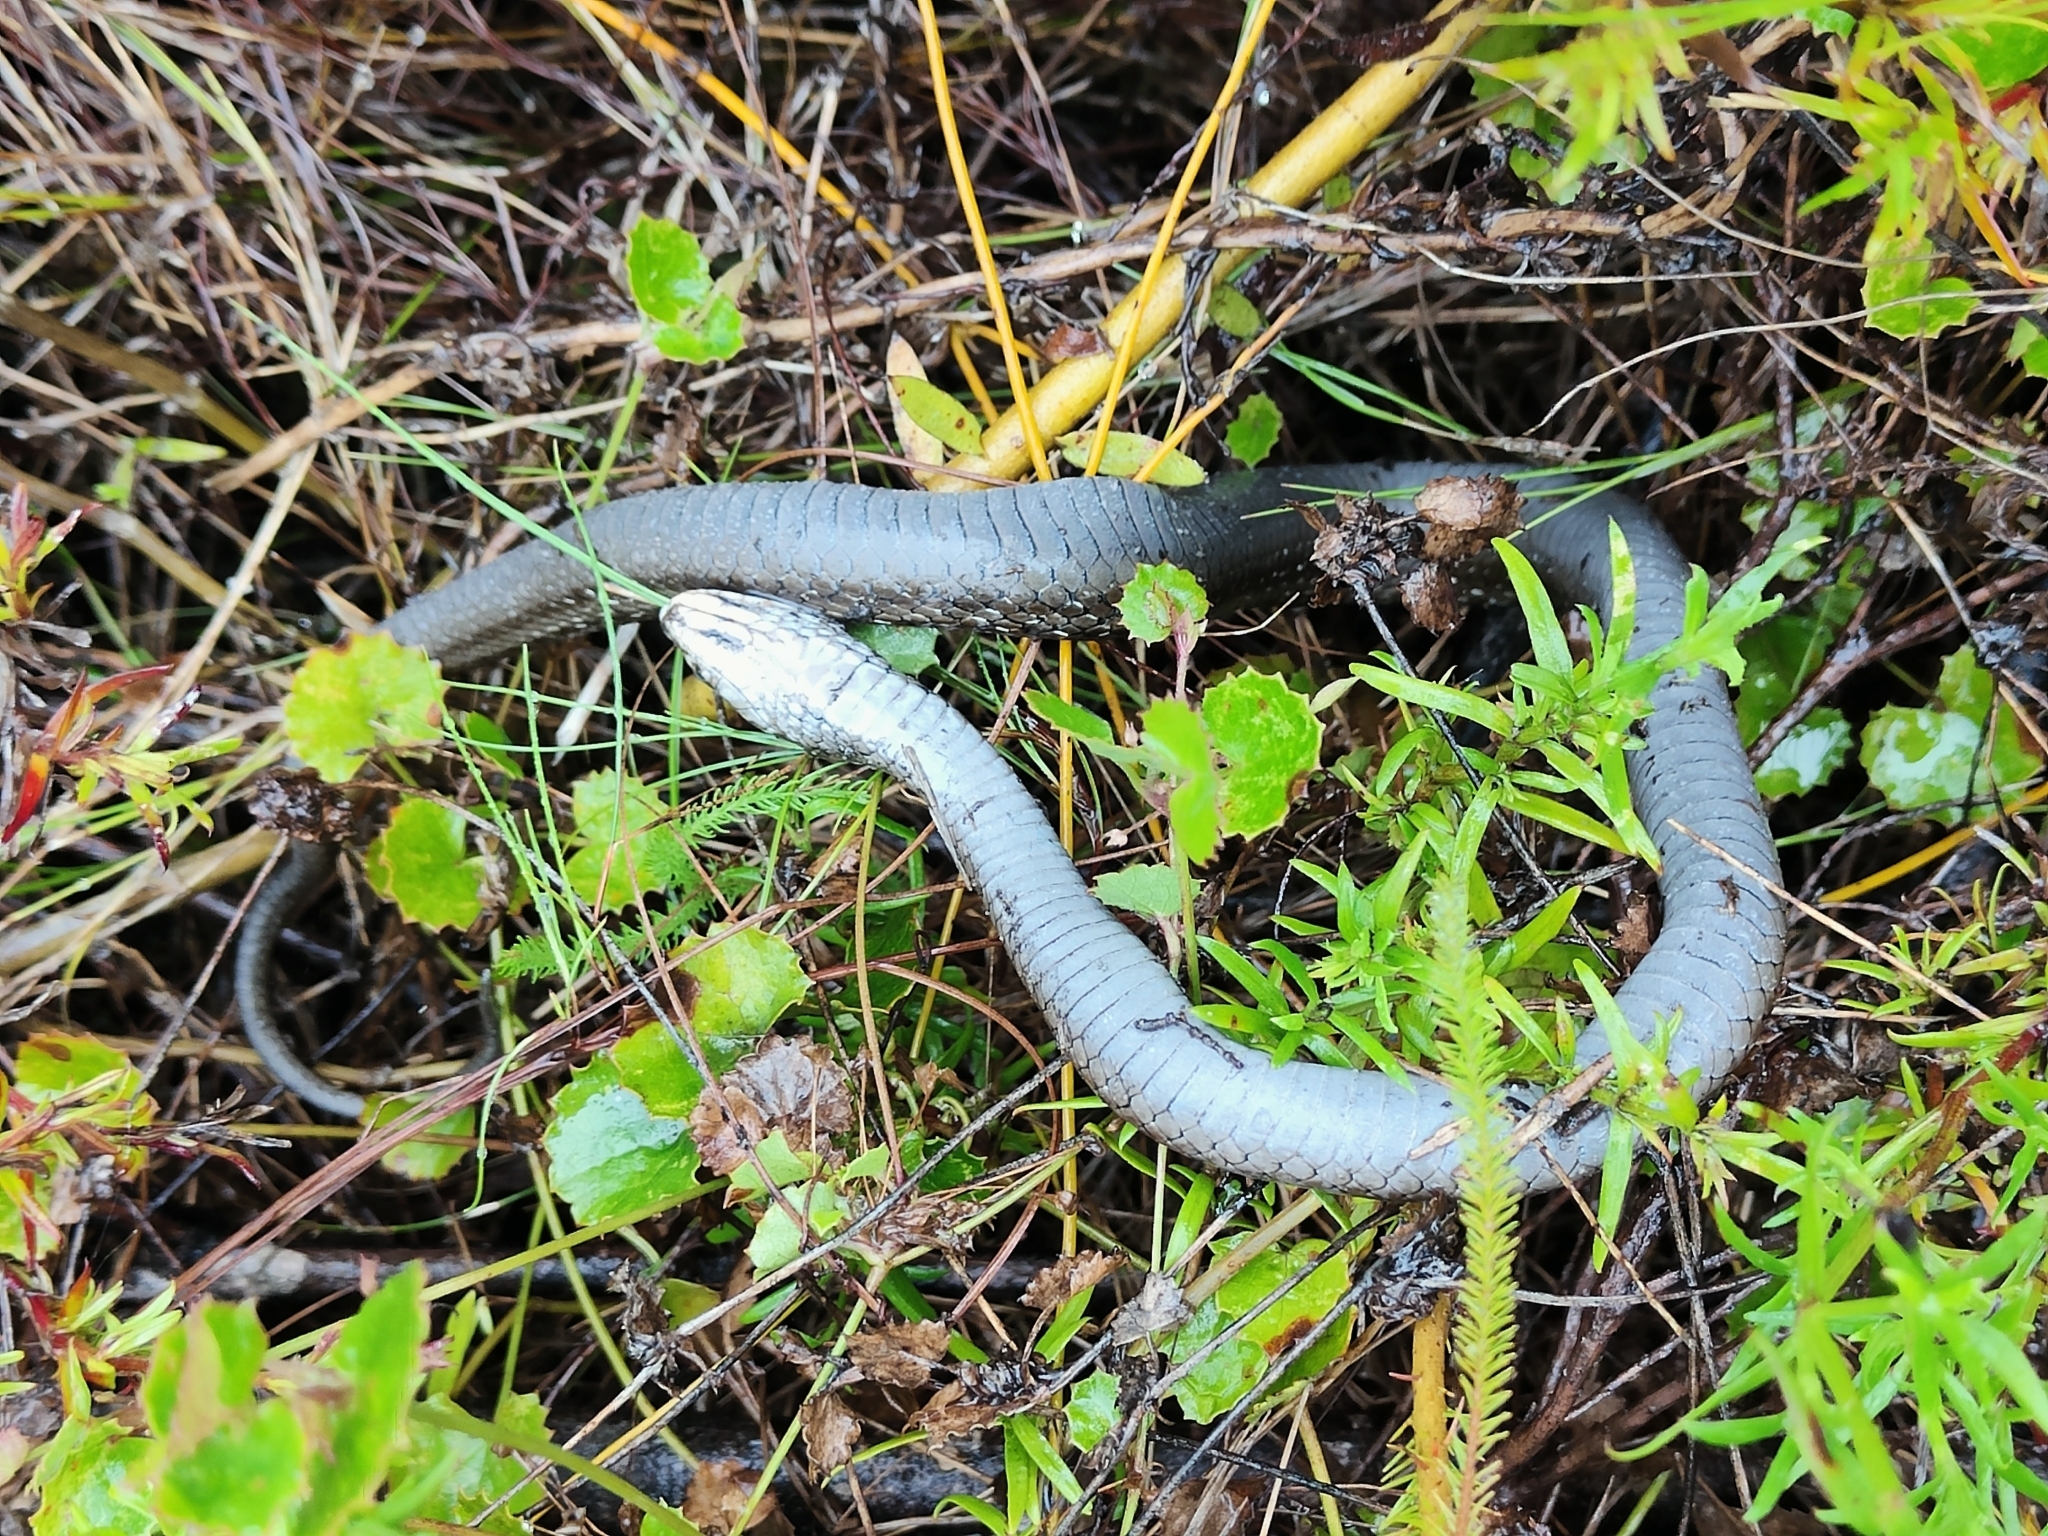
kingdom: Animalia
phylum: Chordata
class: Squamata
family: Pseudoxyrhophiidae
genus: Amplorhinus
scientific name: Amplorhinus multimaculatus
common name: Many-spotted snake
